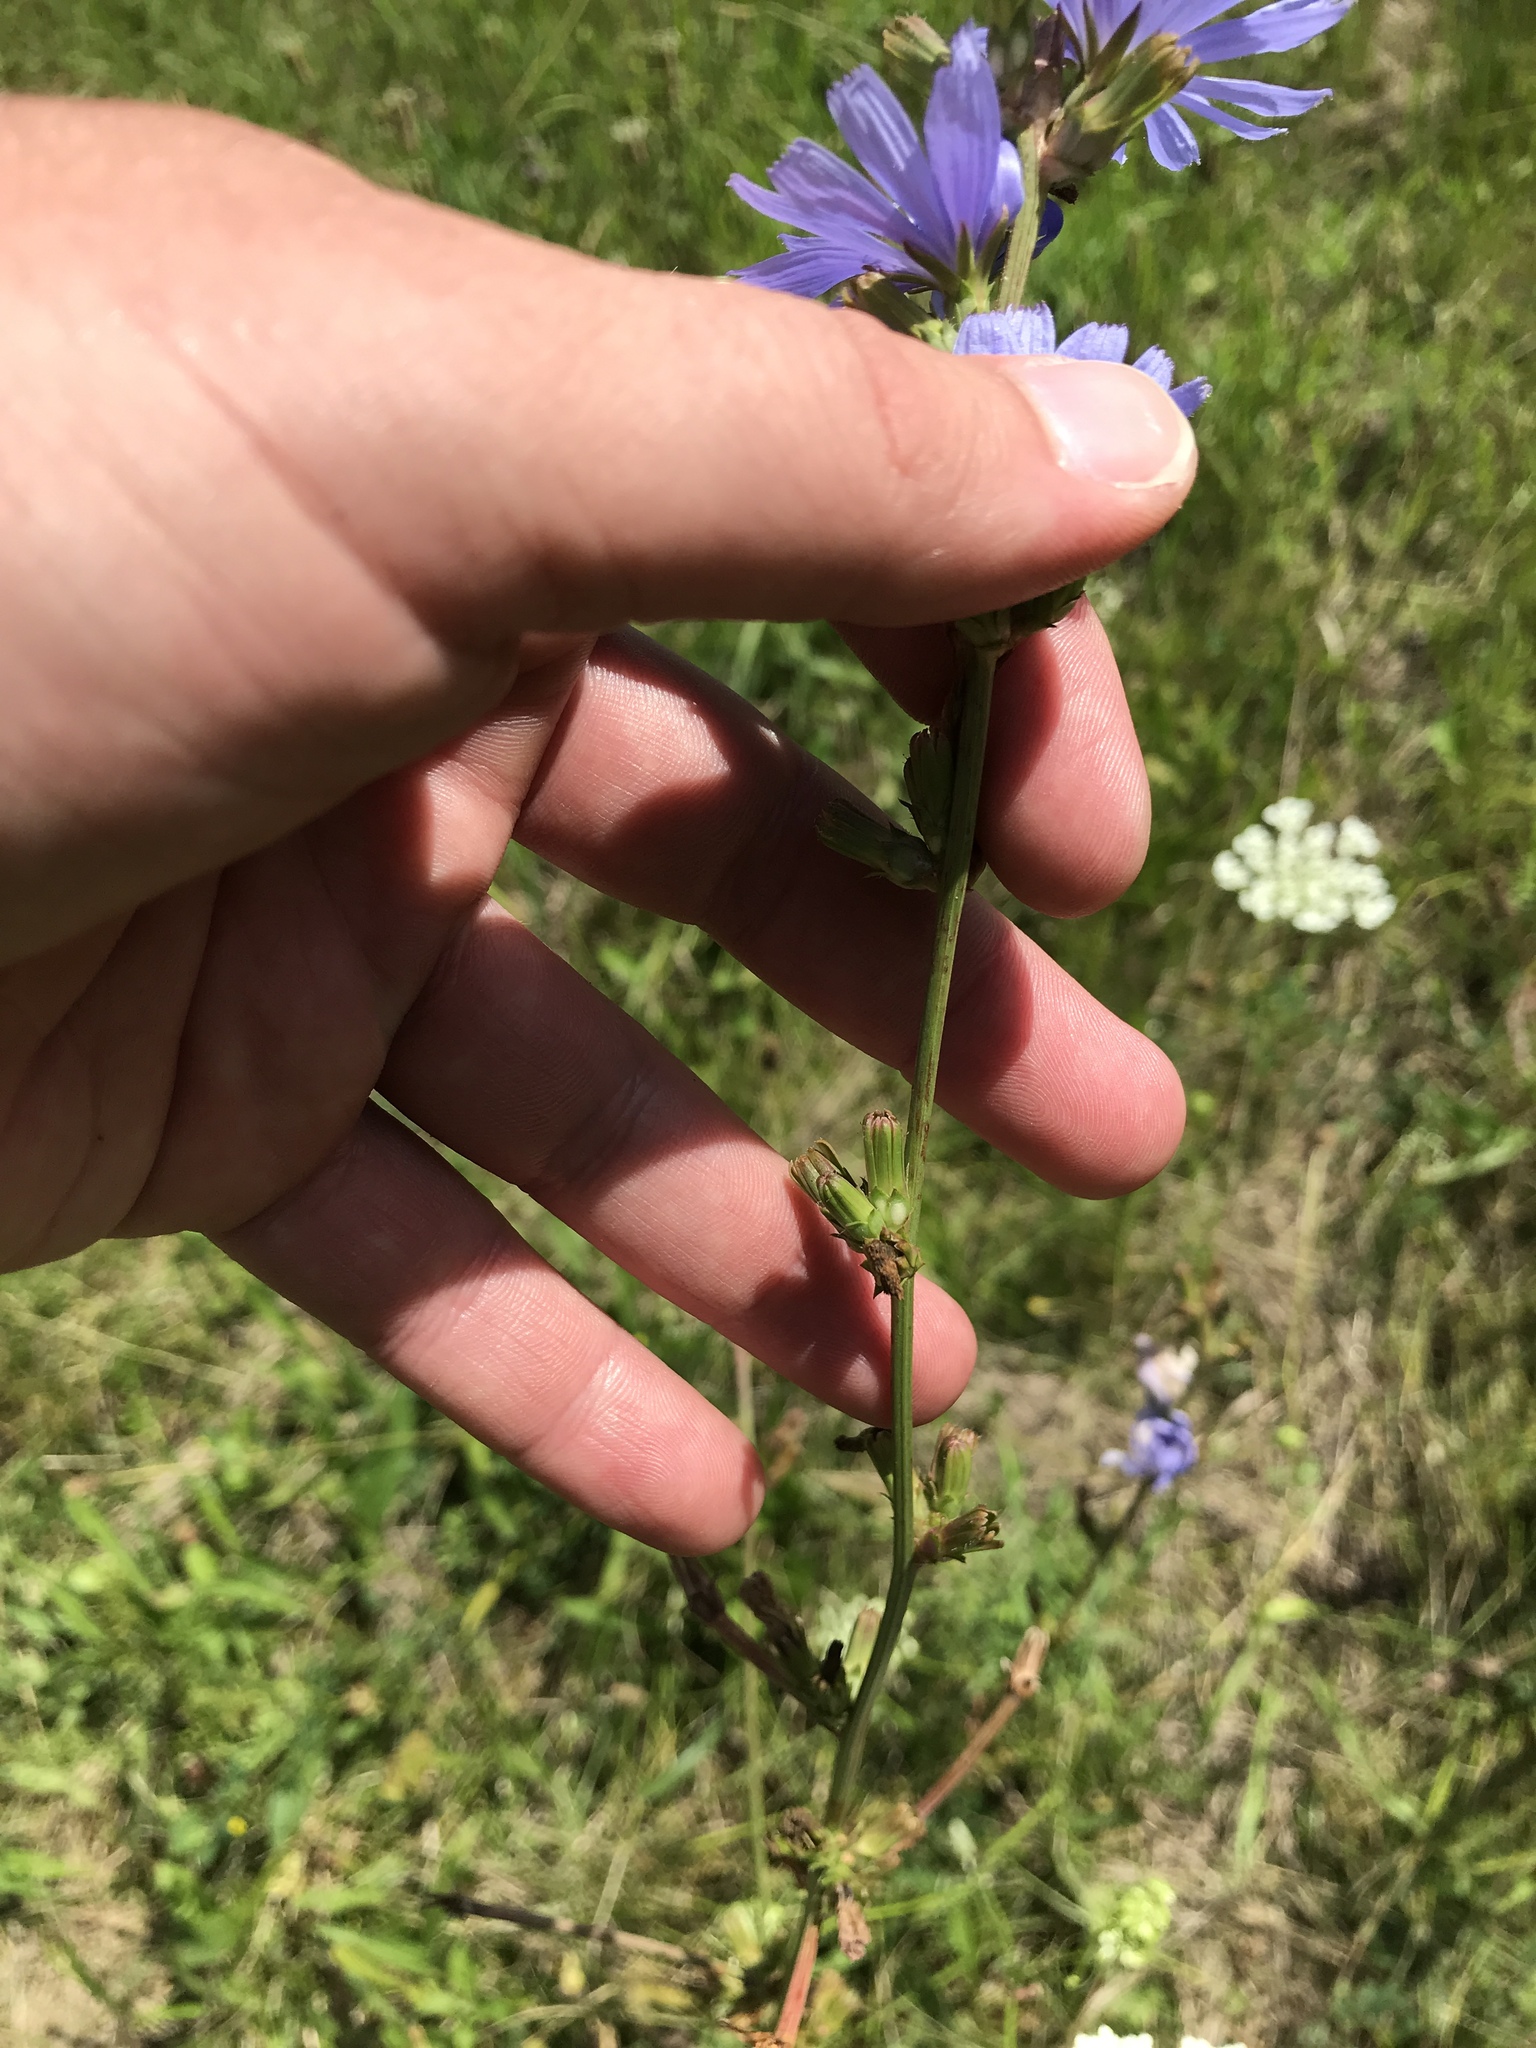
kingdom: Plantae
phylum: Tracheophyta
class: Magnoliopsida
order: Asterales
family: Asteraceae
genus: Cichorium
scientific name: Cichorium intybus
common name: Chicory
